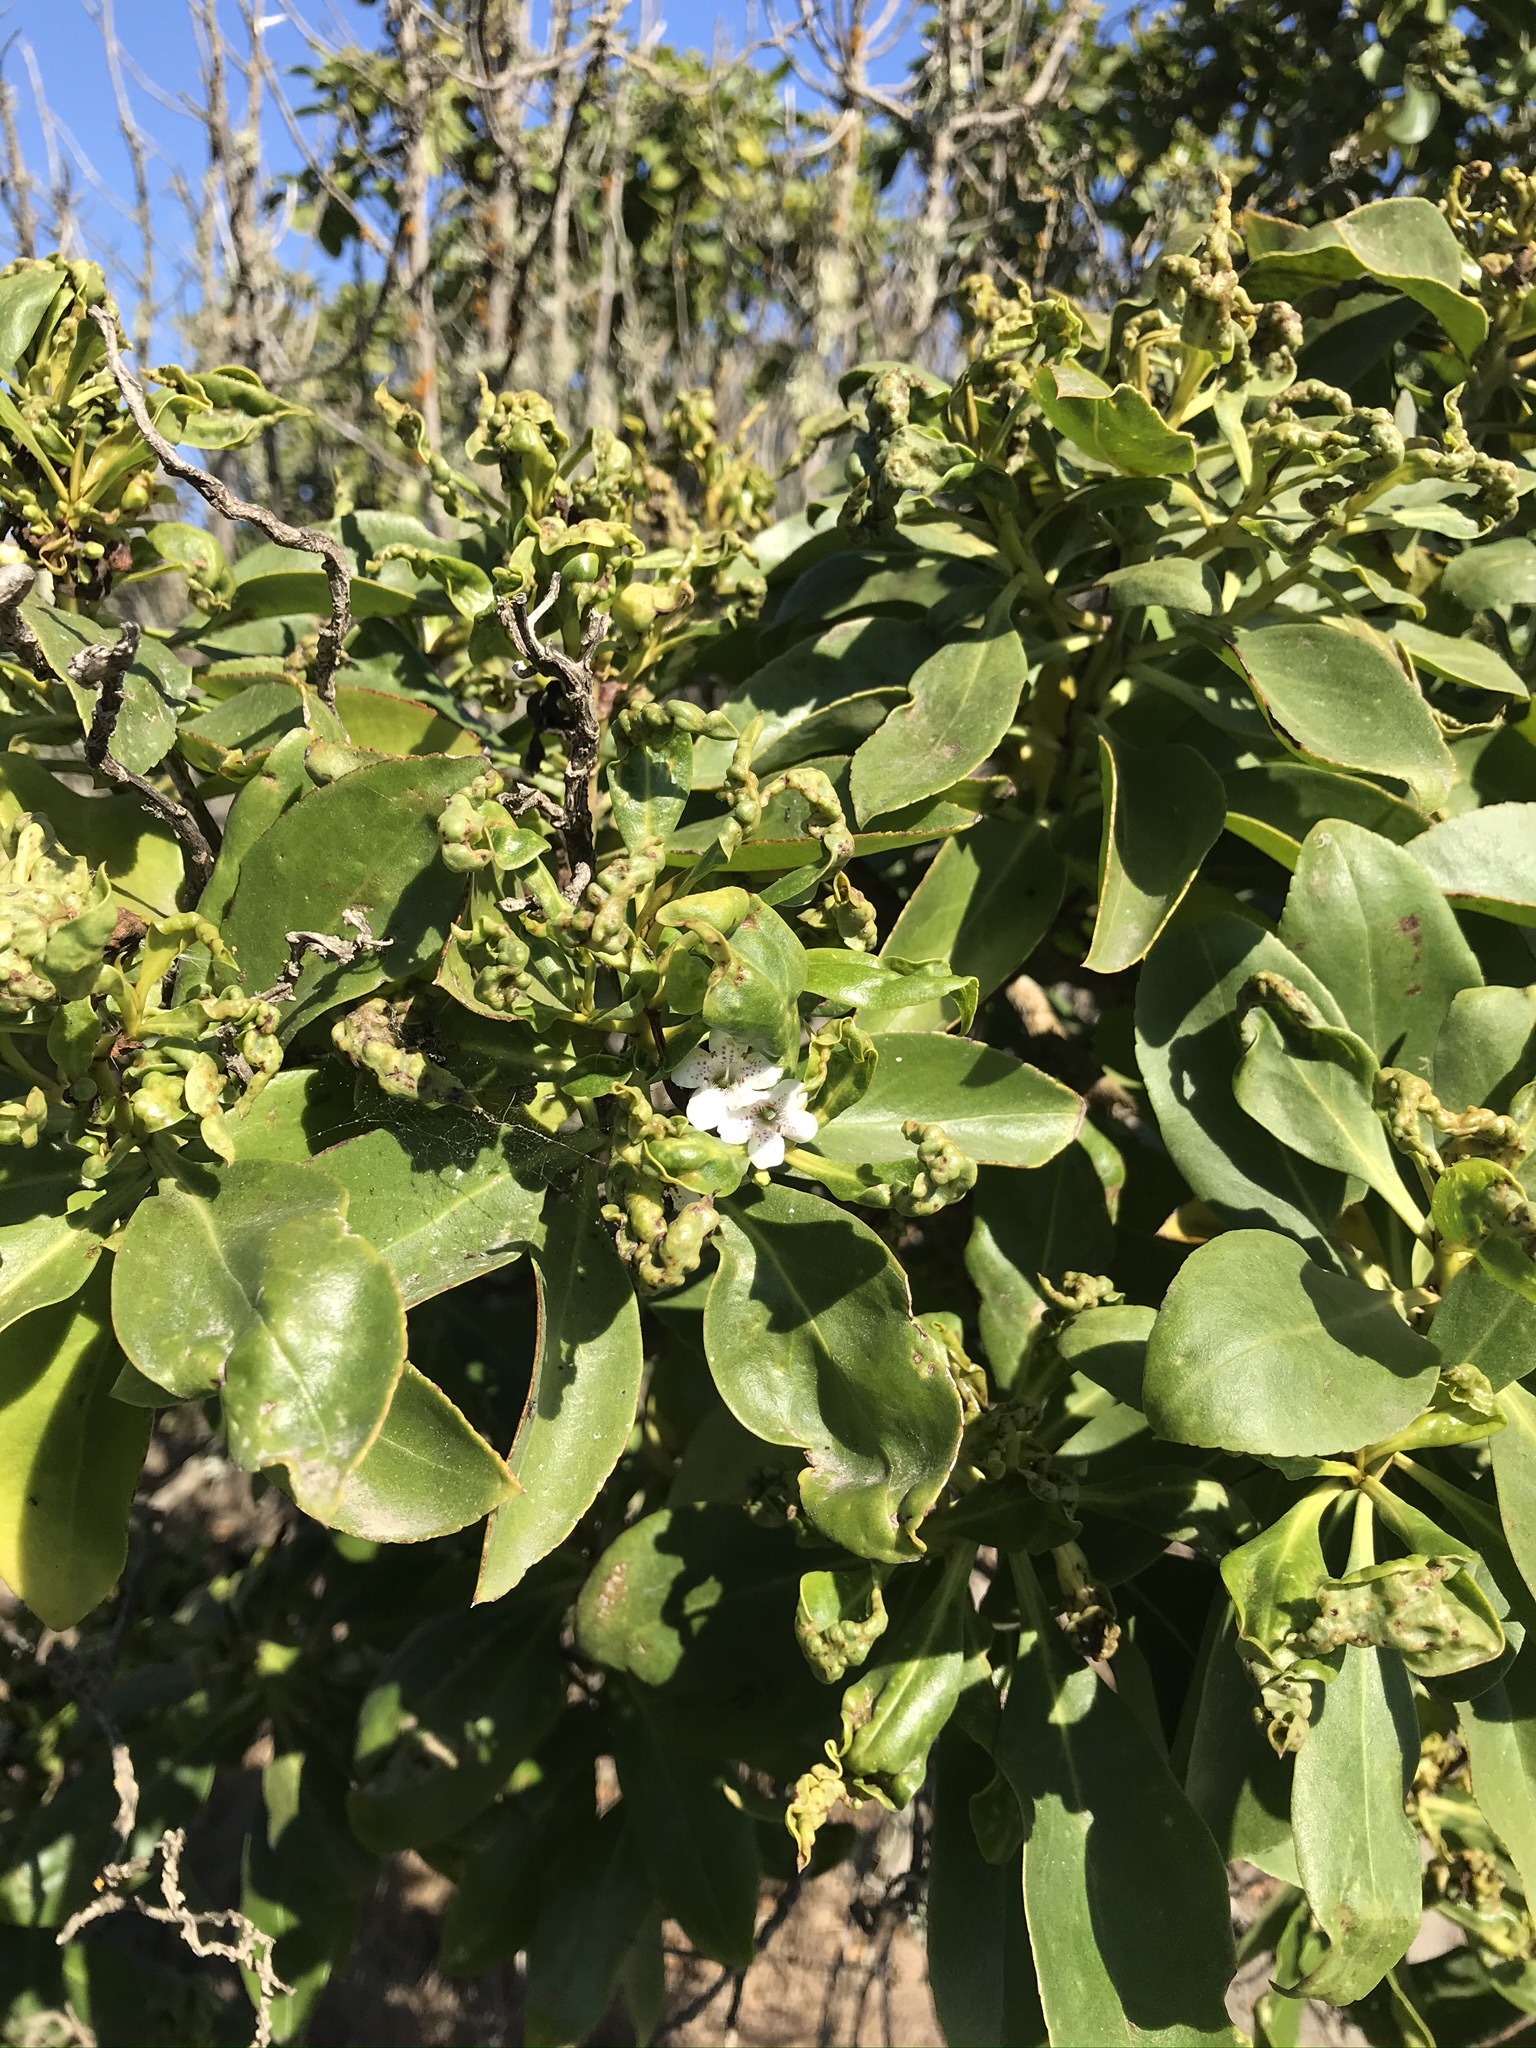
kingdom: Plantae
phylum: Tracheophyta
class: Magnoliopsida
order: Lamiales
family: Scrophulariaceae
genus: Myoporum
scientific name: Myoporum laetum
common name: Ngaio tree
